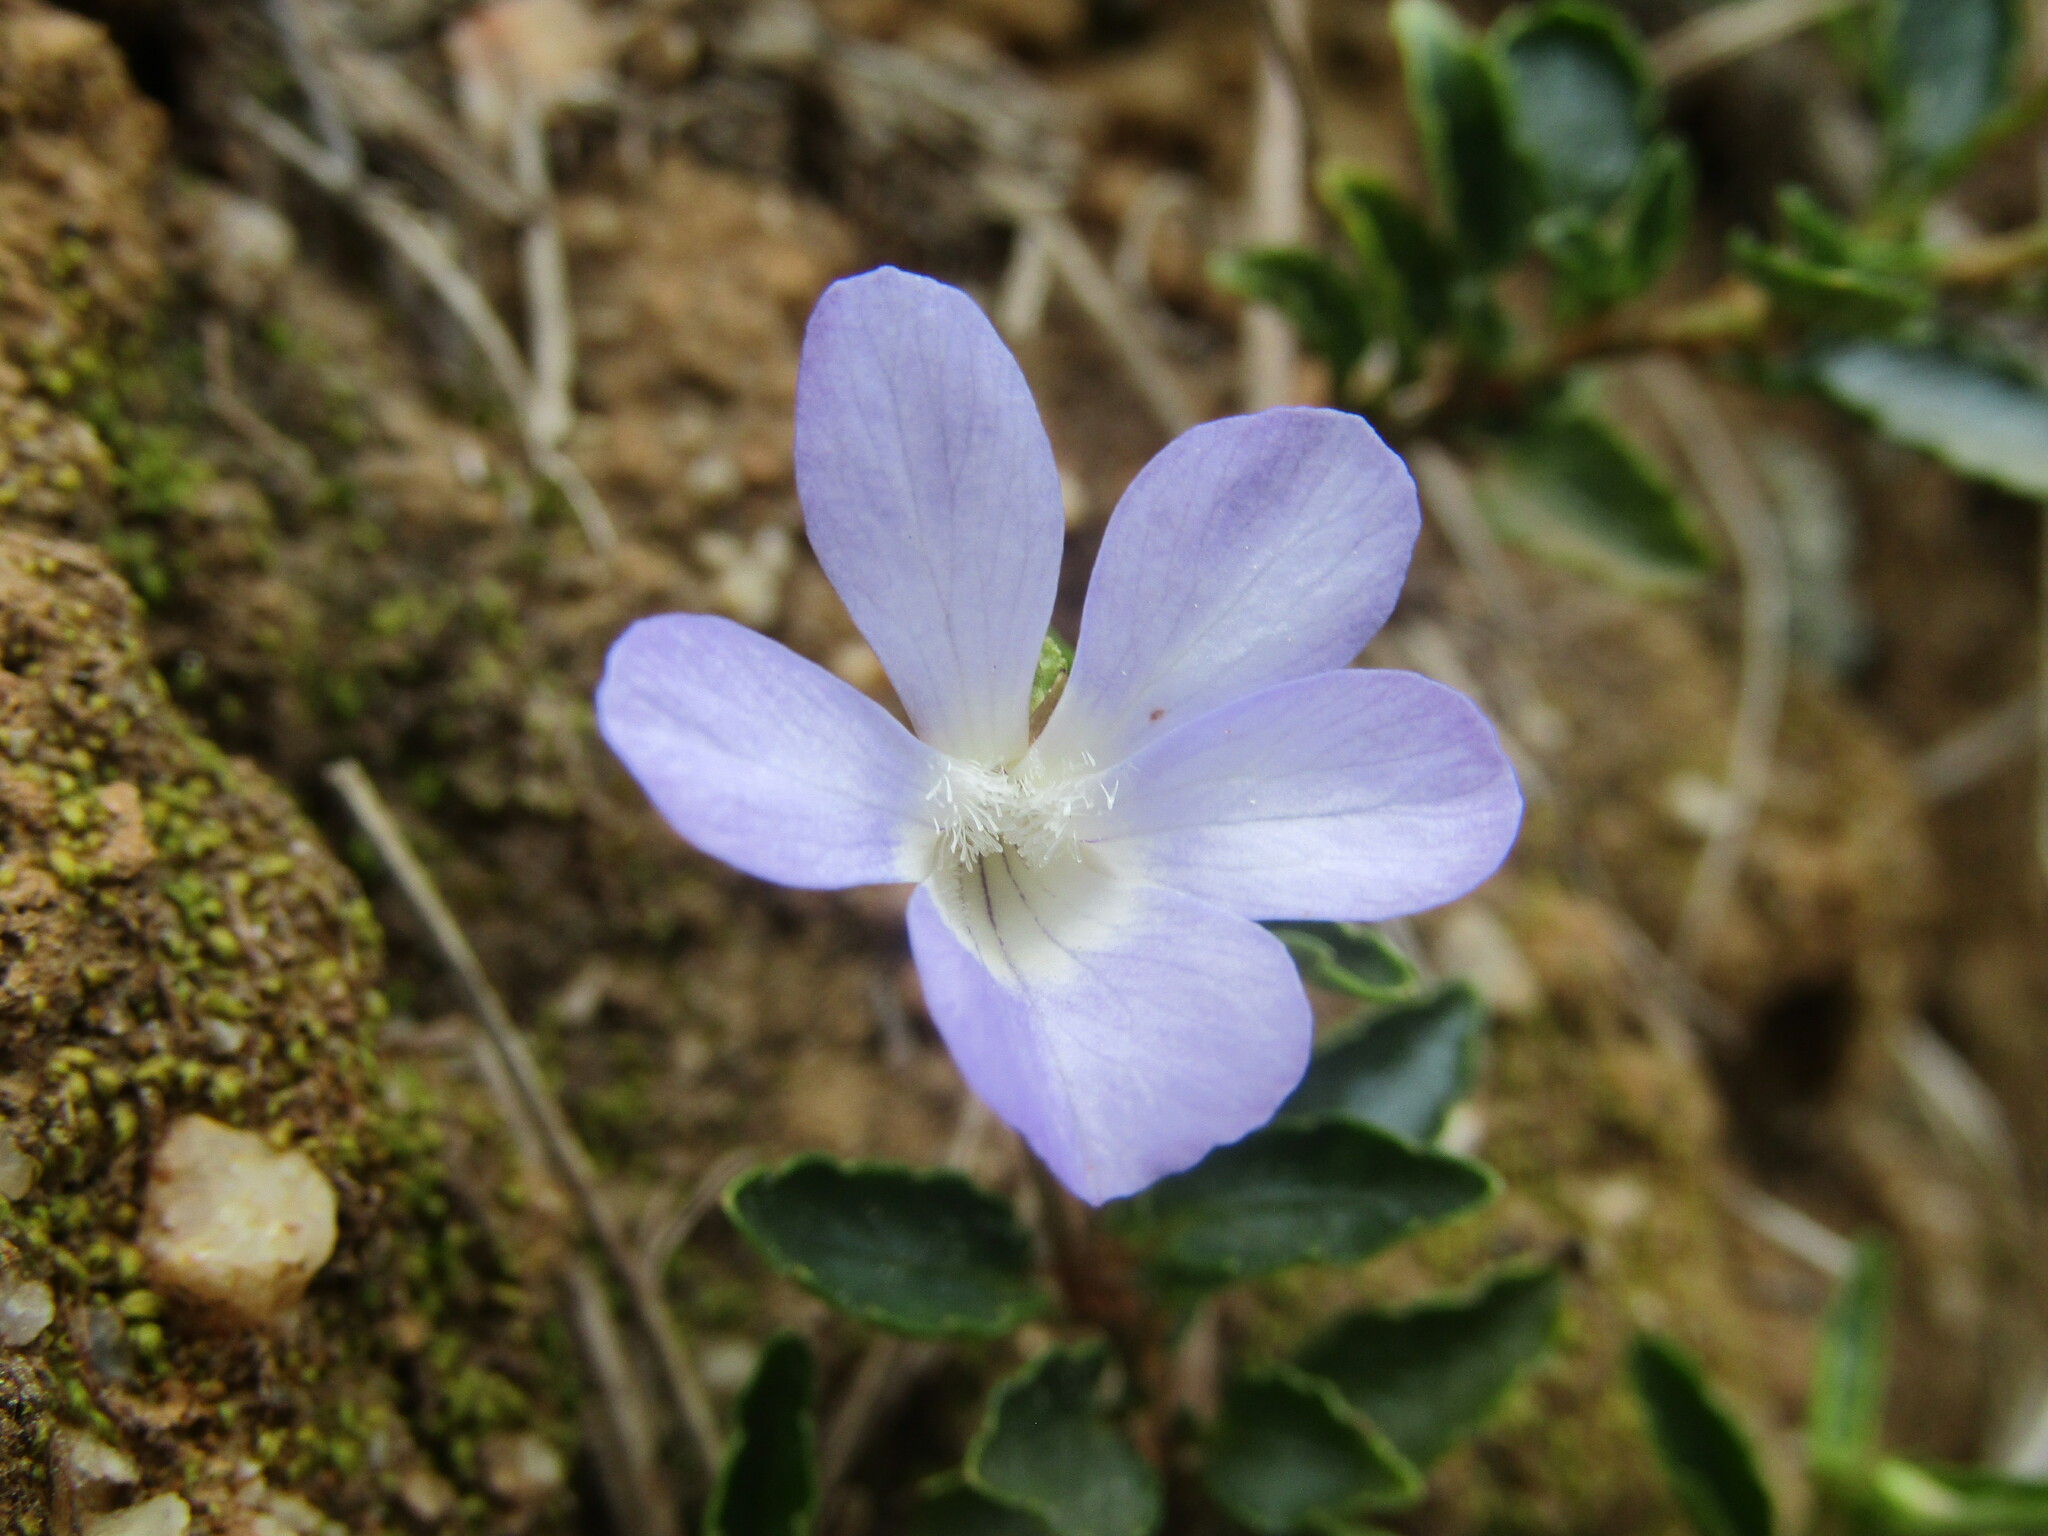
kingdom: Plantae
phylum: Tracheophyta
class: Magnoliopsida
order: Malpighiales
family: Violaceae
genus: Viola
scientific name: Viola portalesia
